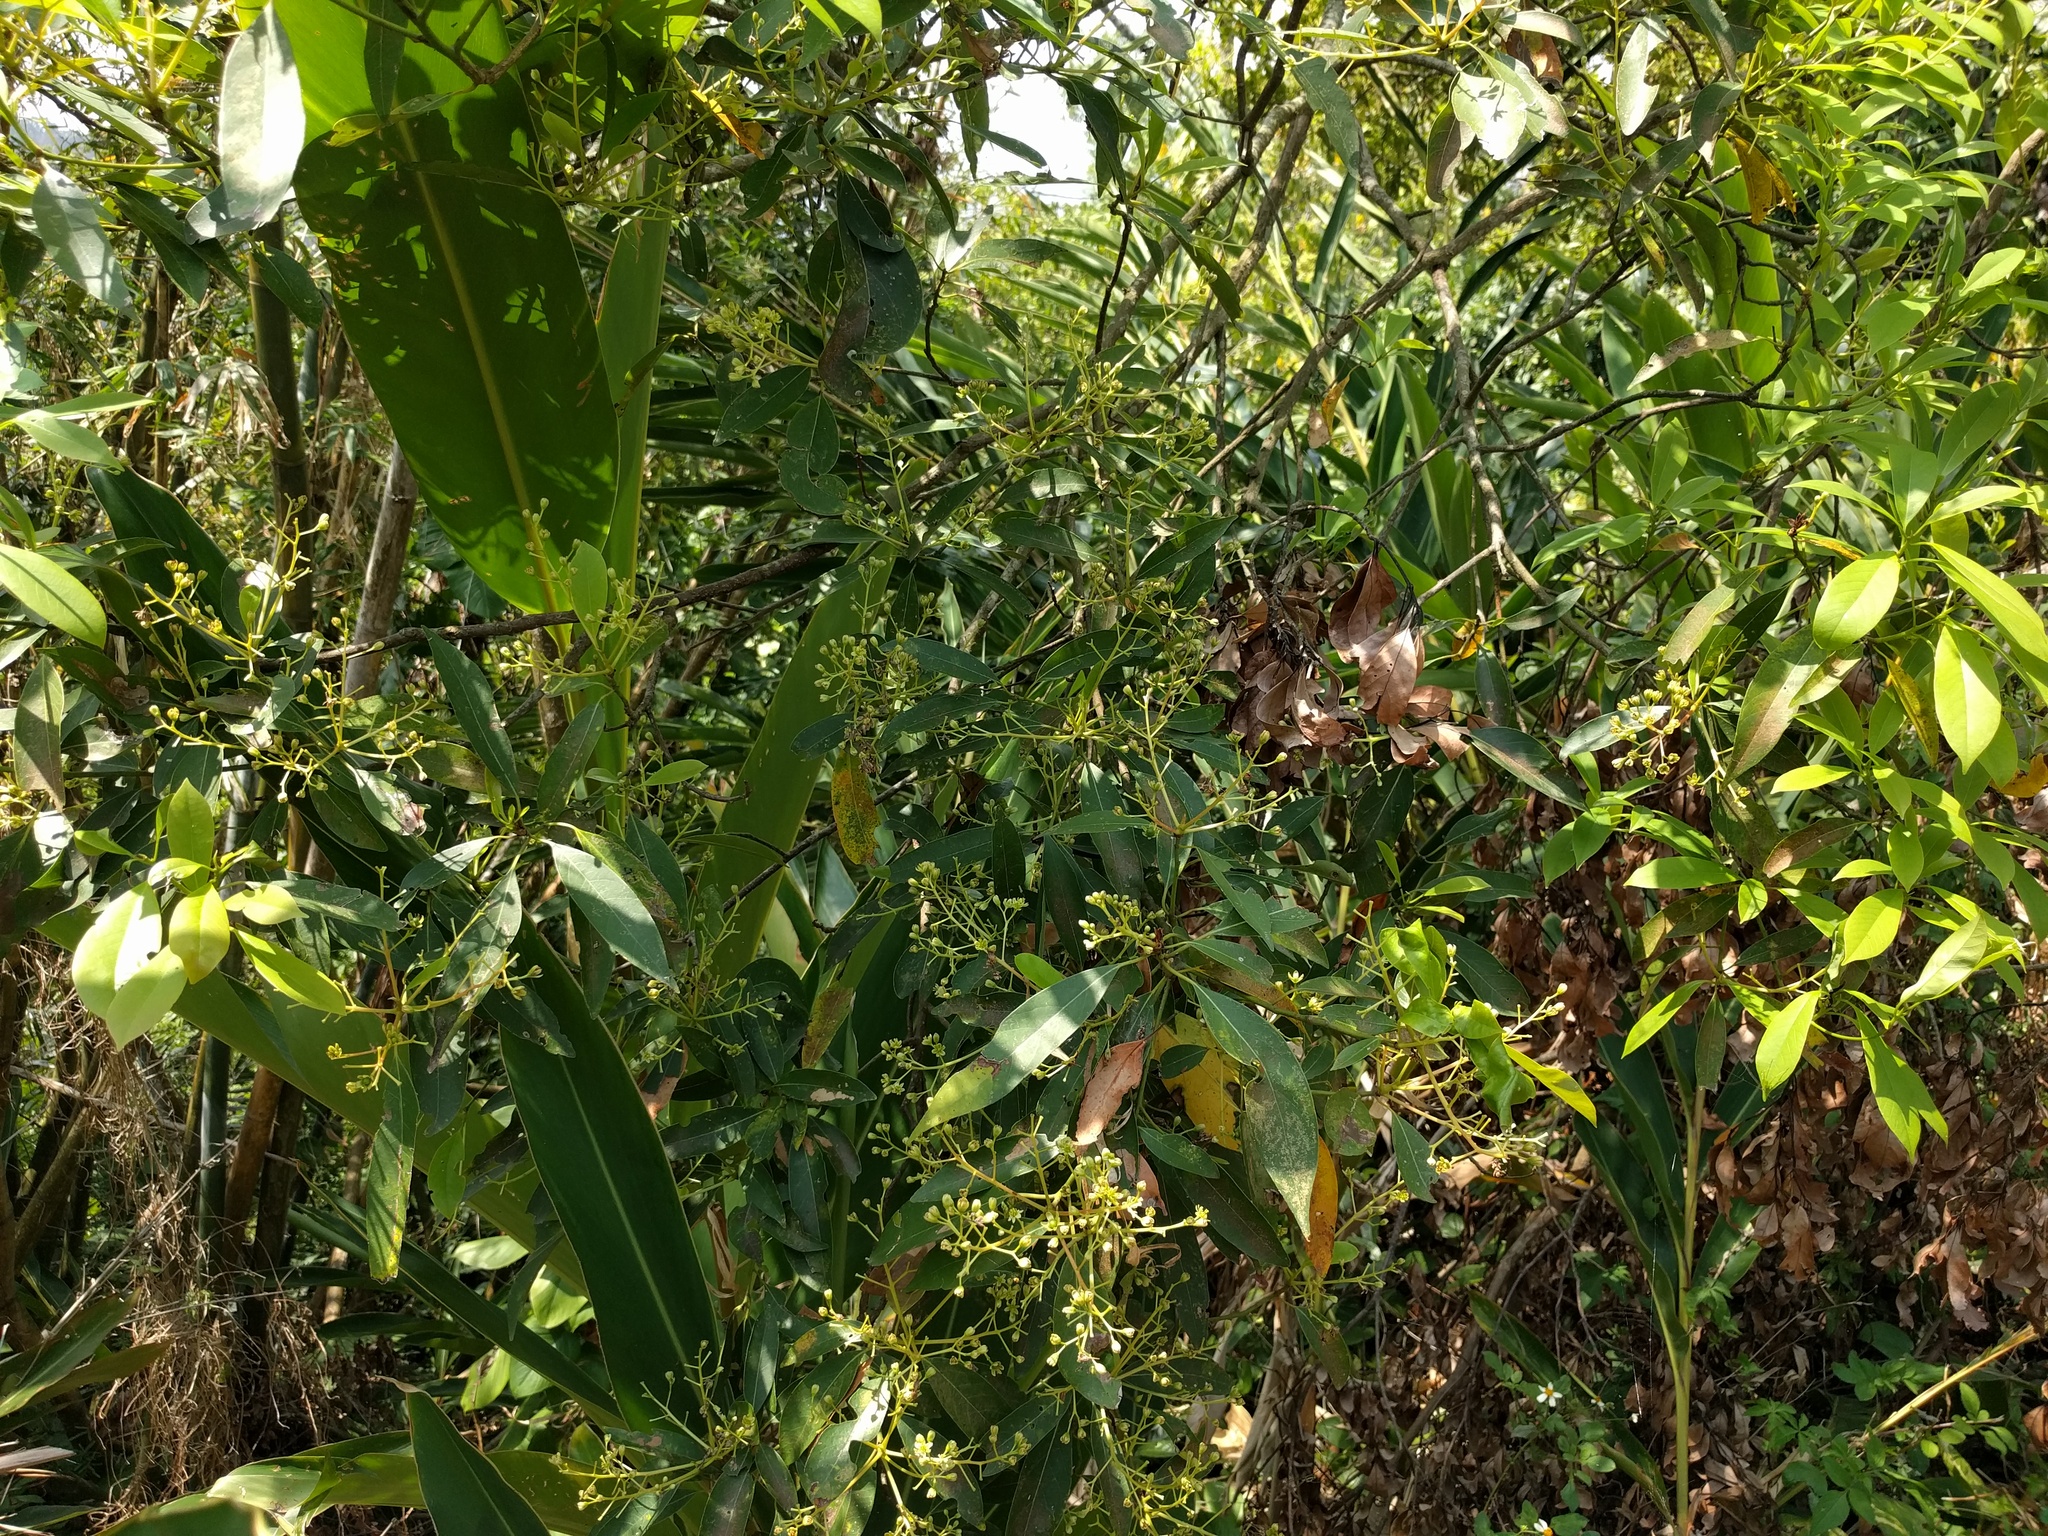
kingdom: Plantae
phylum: Tracheophyta
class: Magnoliopsida
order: Laurales
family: Lauraceae
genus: Machilus
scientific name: Machilus zuihoensis
